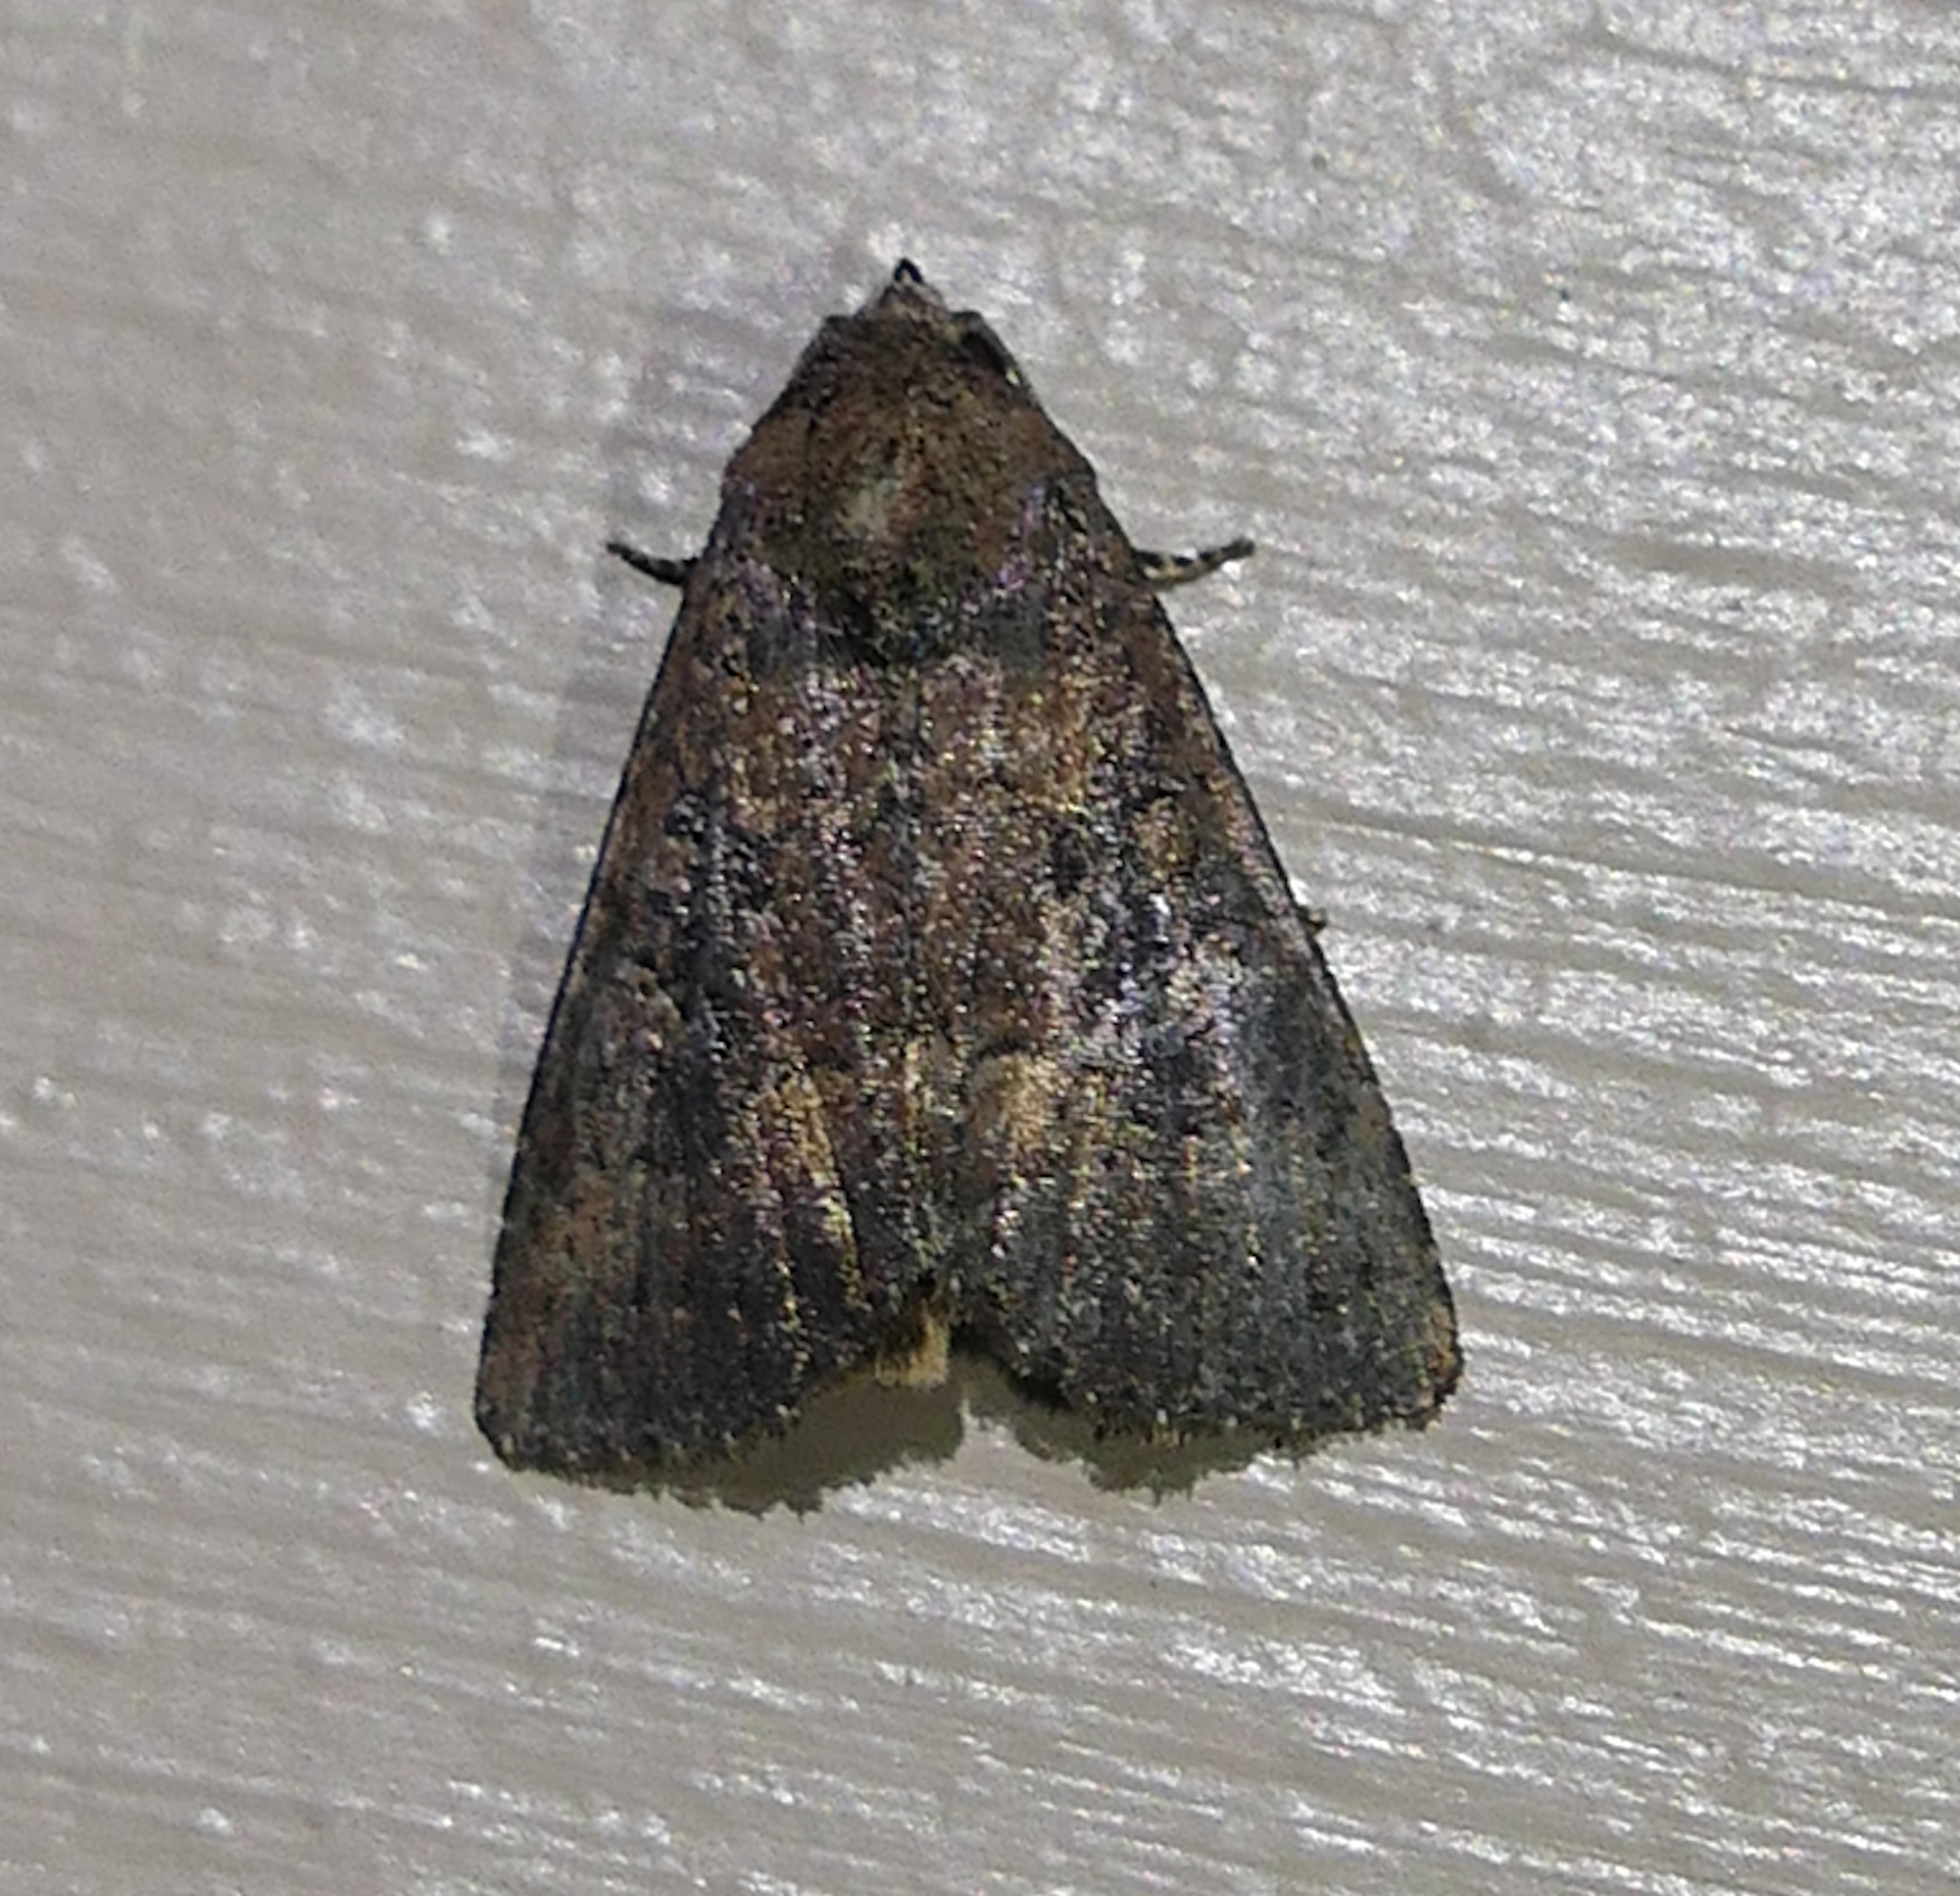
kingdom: Animalia
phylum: Arthropoda
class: Insecta
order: Lepidoptera
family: Noctuidae
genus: Condica
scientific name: Condica sutor
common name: Cobbler moth
